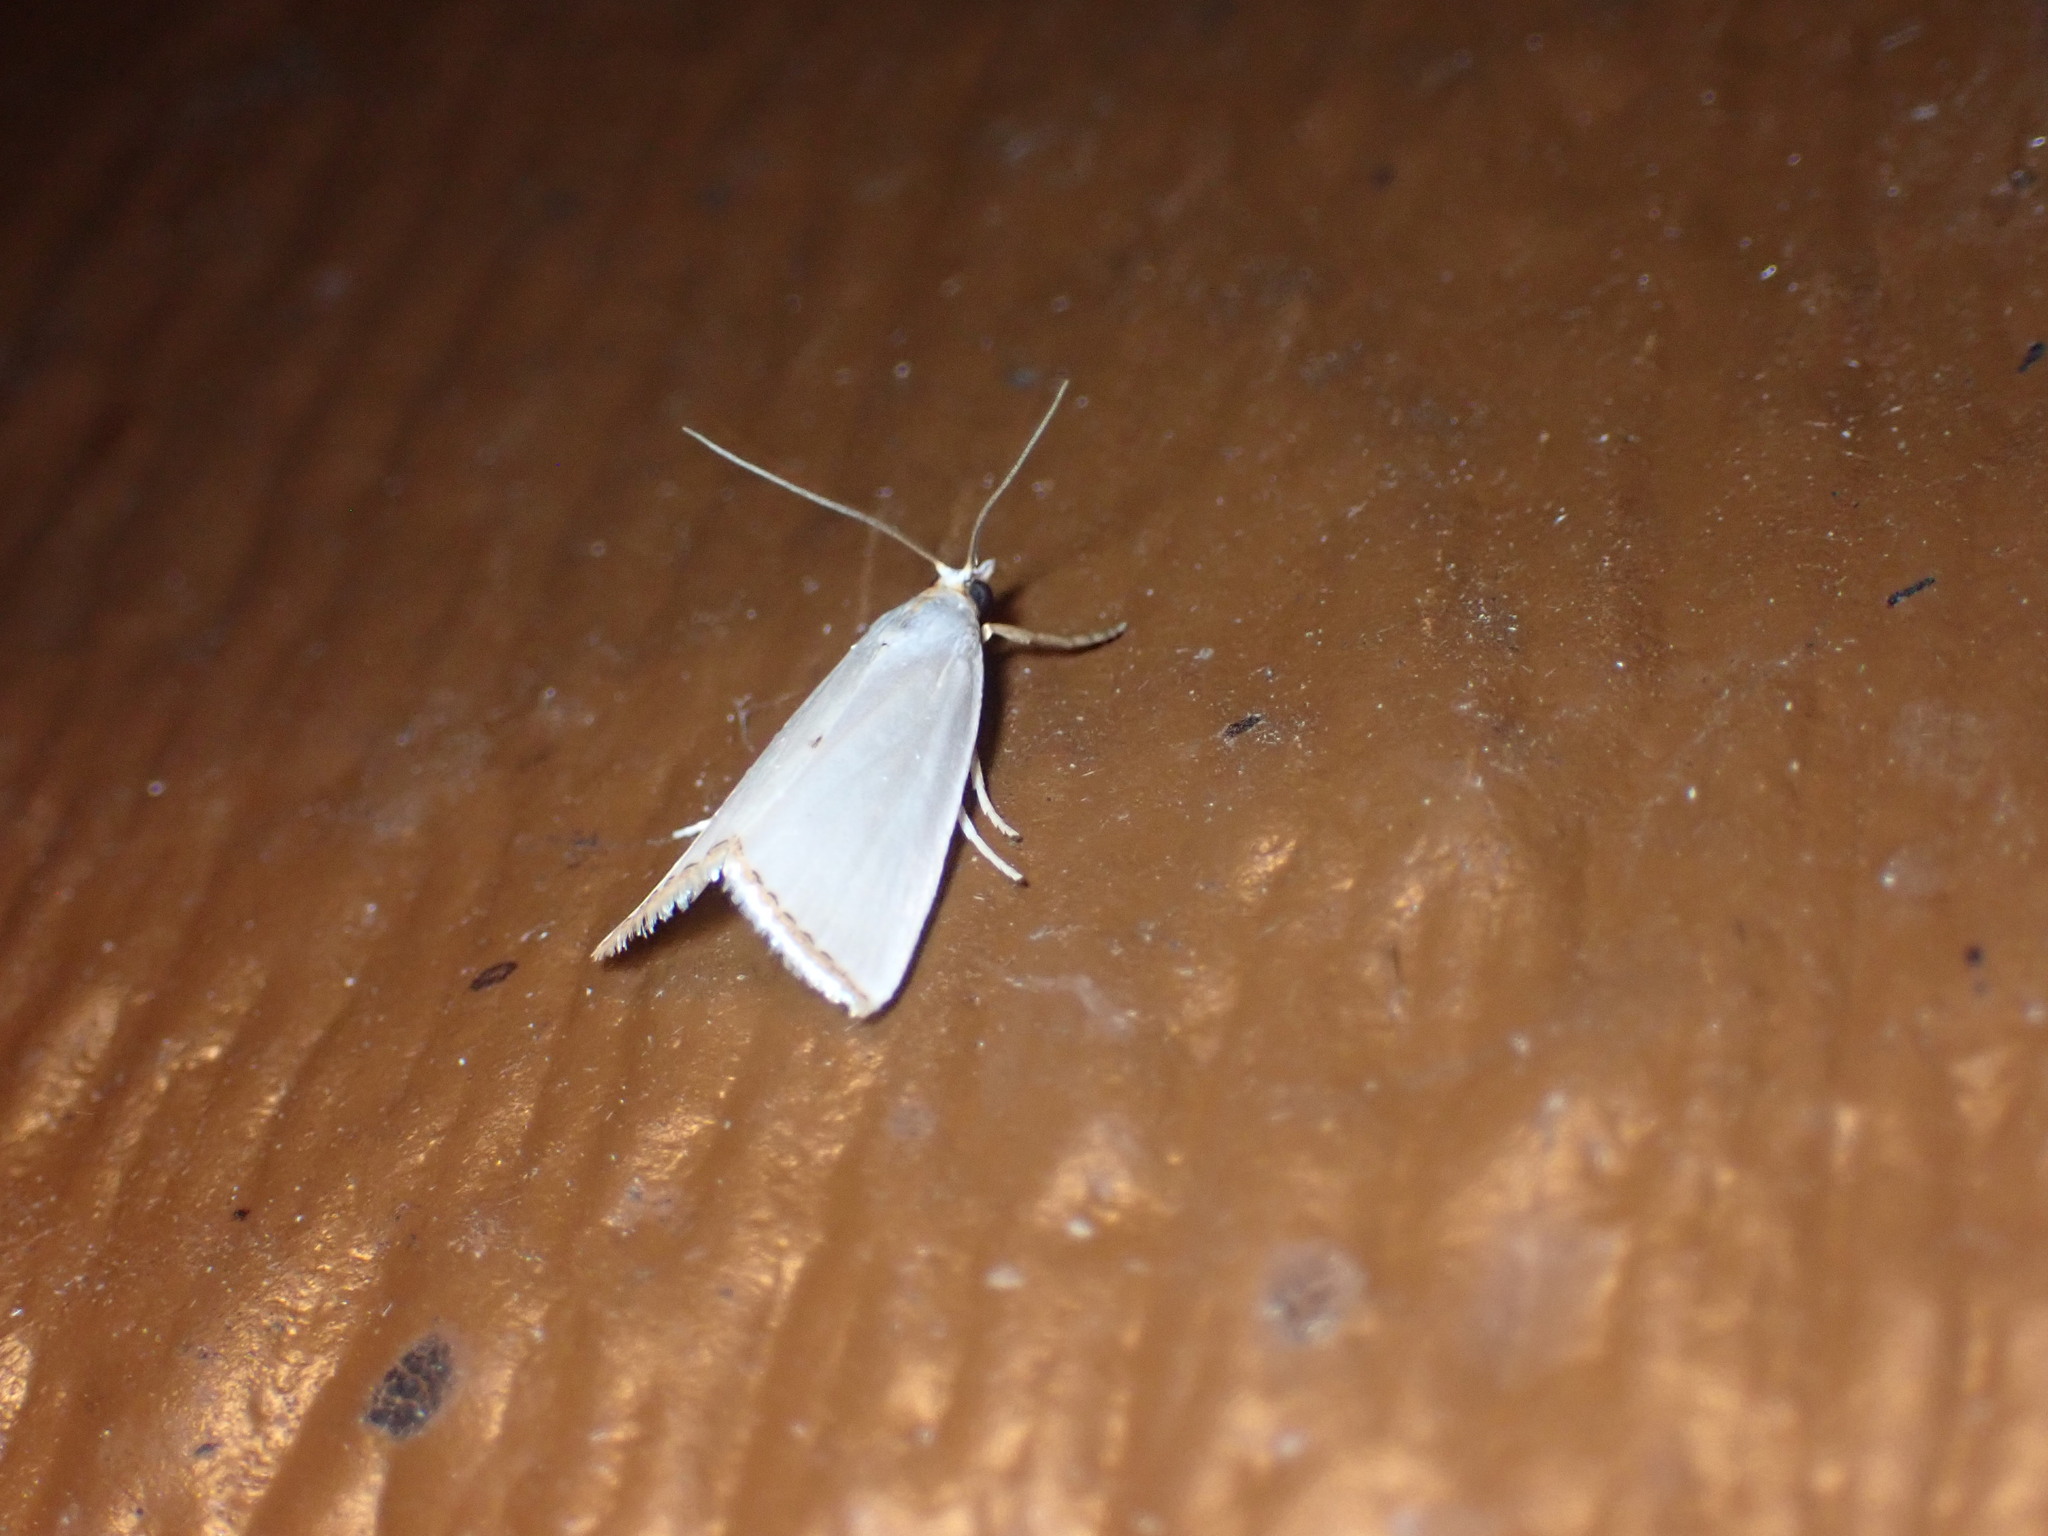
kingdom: Animalia
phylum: Arthropoda
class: Insecta
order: Lepidoptera
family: Crambidae
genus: Argyria
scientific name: Argyria nivalis
